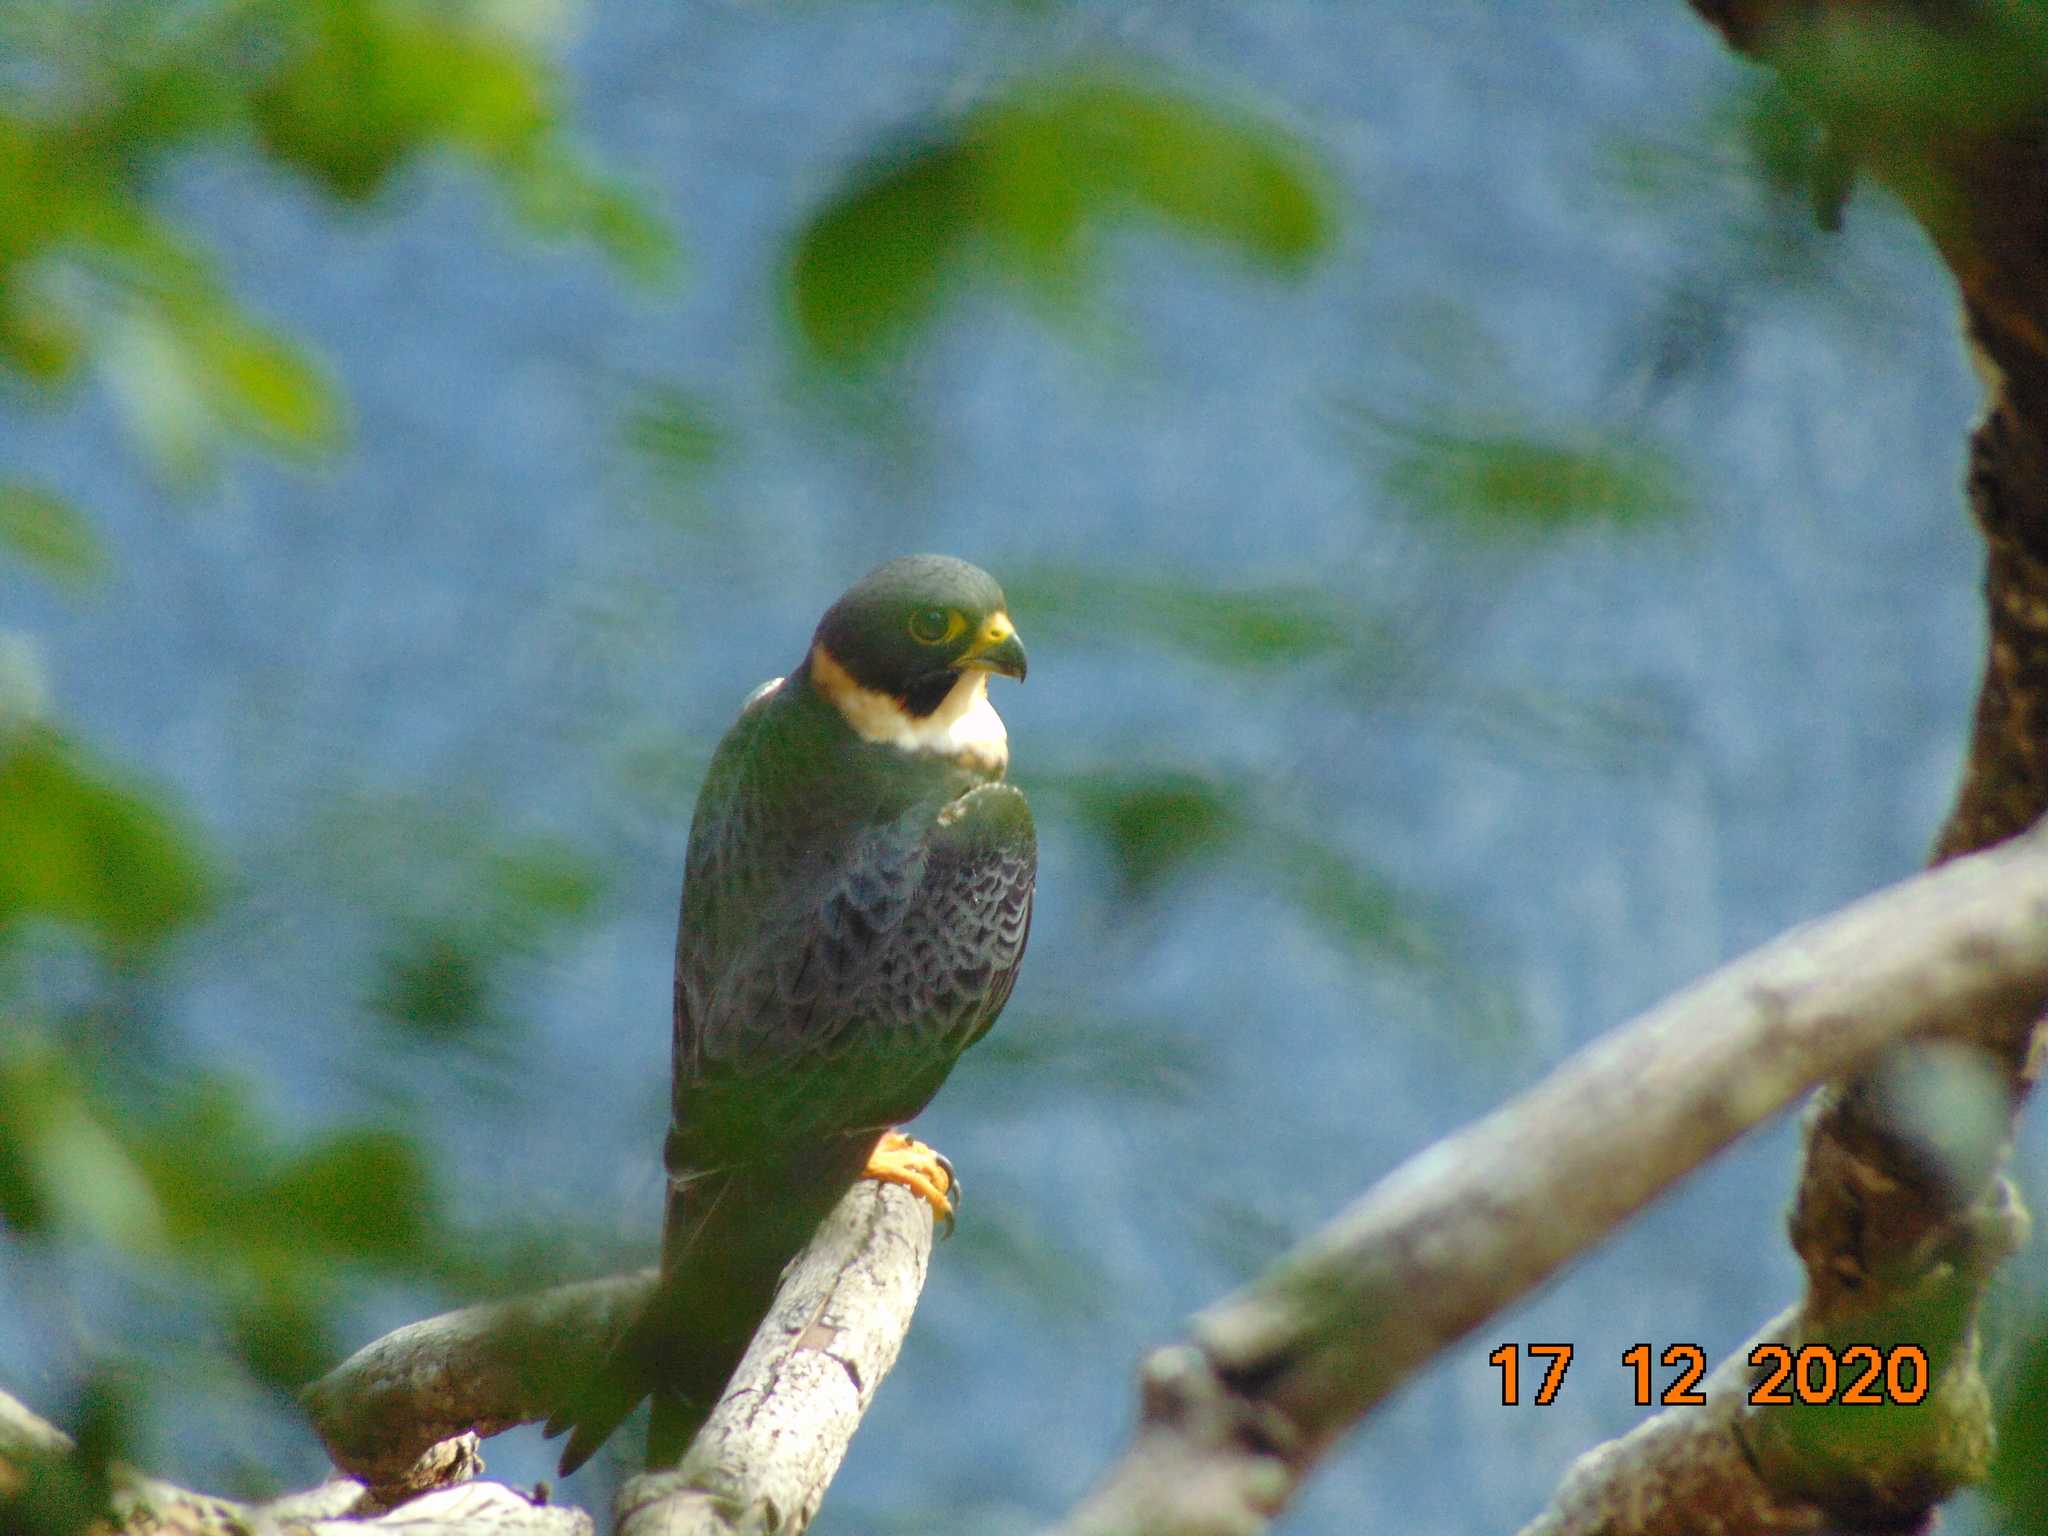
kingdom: Animalia
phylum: Chordata
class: Aves
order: Falconiformes
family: Falconidae
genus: Falco
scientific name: Falco rufigularis
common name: Bat falcon
